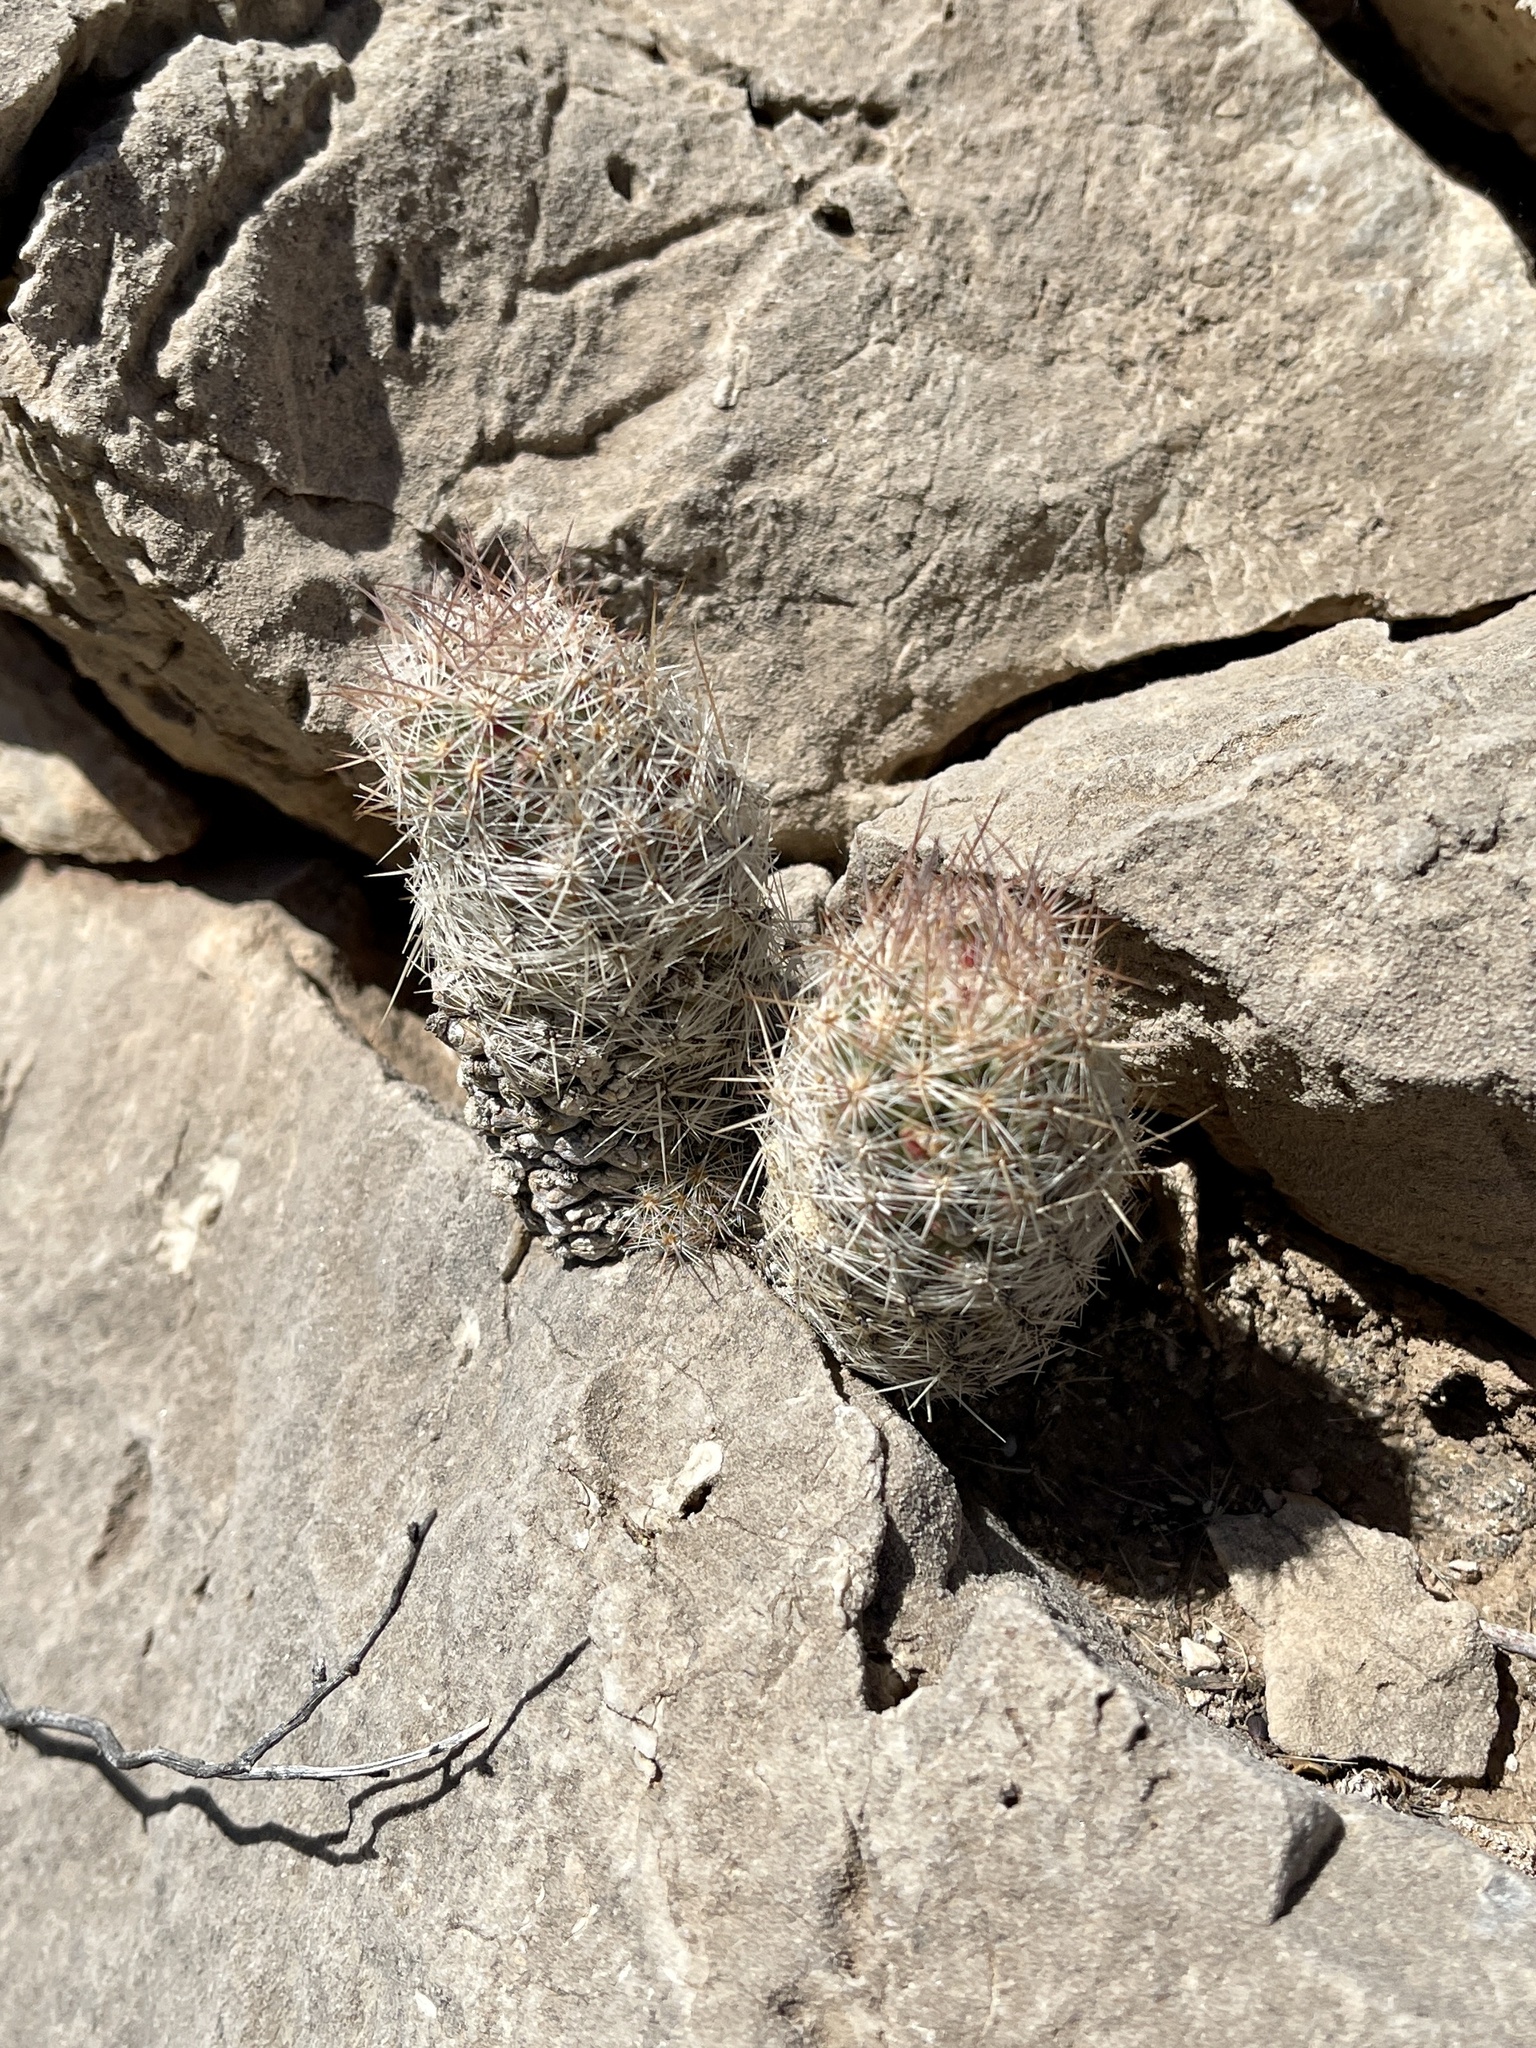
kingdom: Plantae
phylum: Tracheophyta
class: Magnoliopsida
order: Caryophyllales
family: Cactaceae
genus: Pelecyphora
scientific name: Pelecyphora tuberculosa
